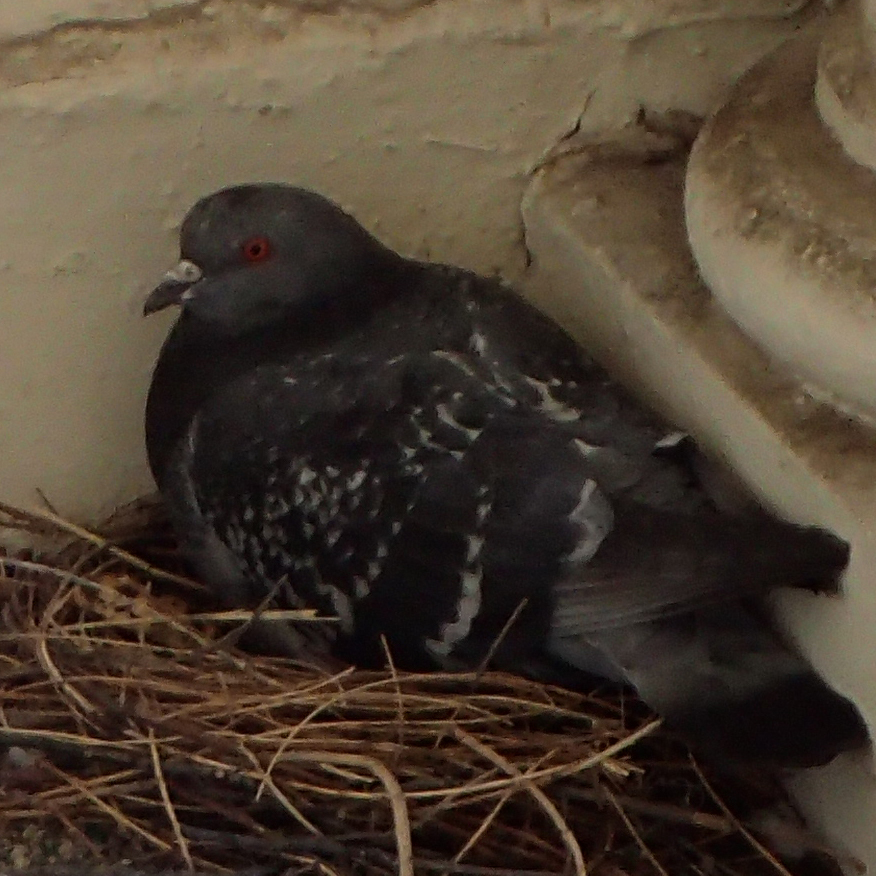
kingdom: Animalia
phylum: Chordata
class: Aves
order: Columbiformes
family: Columbidae
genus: Columba
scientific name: Columba livia
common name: Rock pigeon
